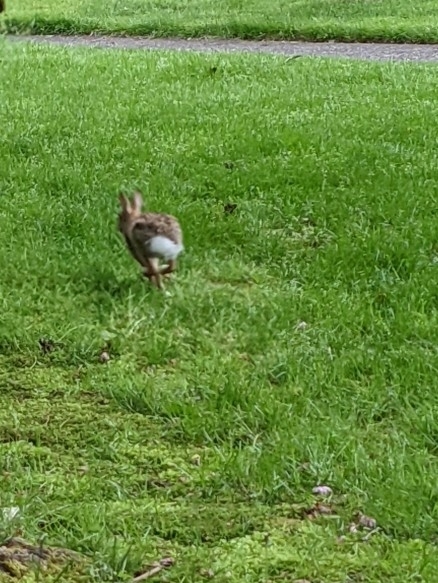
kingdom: Animalia
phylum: Chordata
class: Mammalia
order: Lagomorpha
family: Leporidae
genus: Sylvilagus
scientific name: Sylvilagus floridanus
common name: Eastern cottontail
